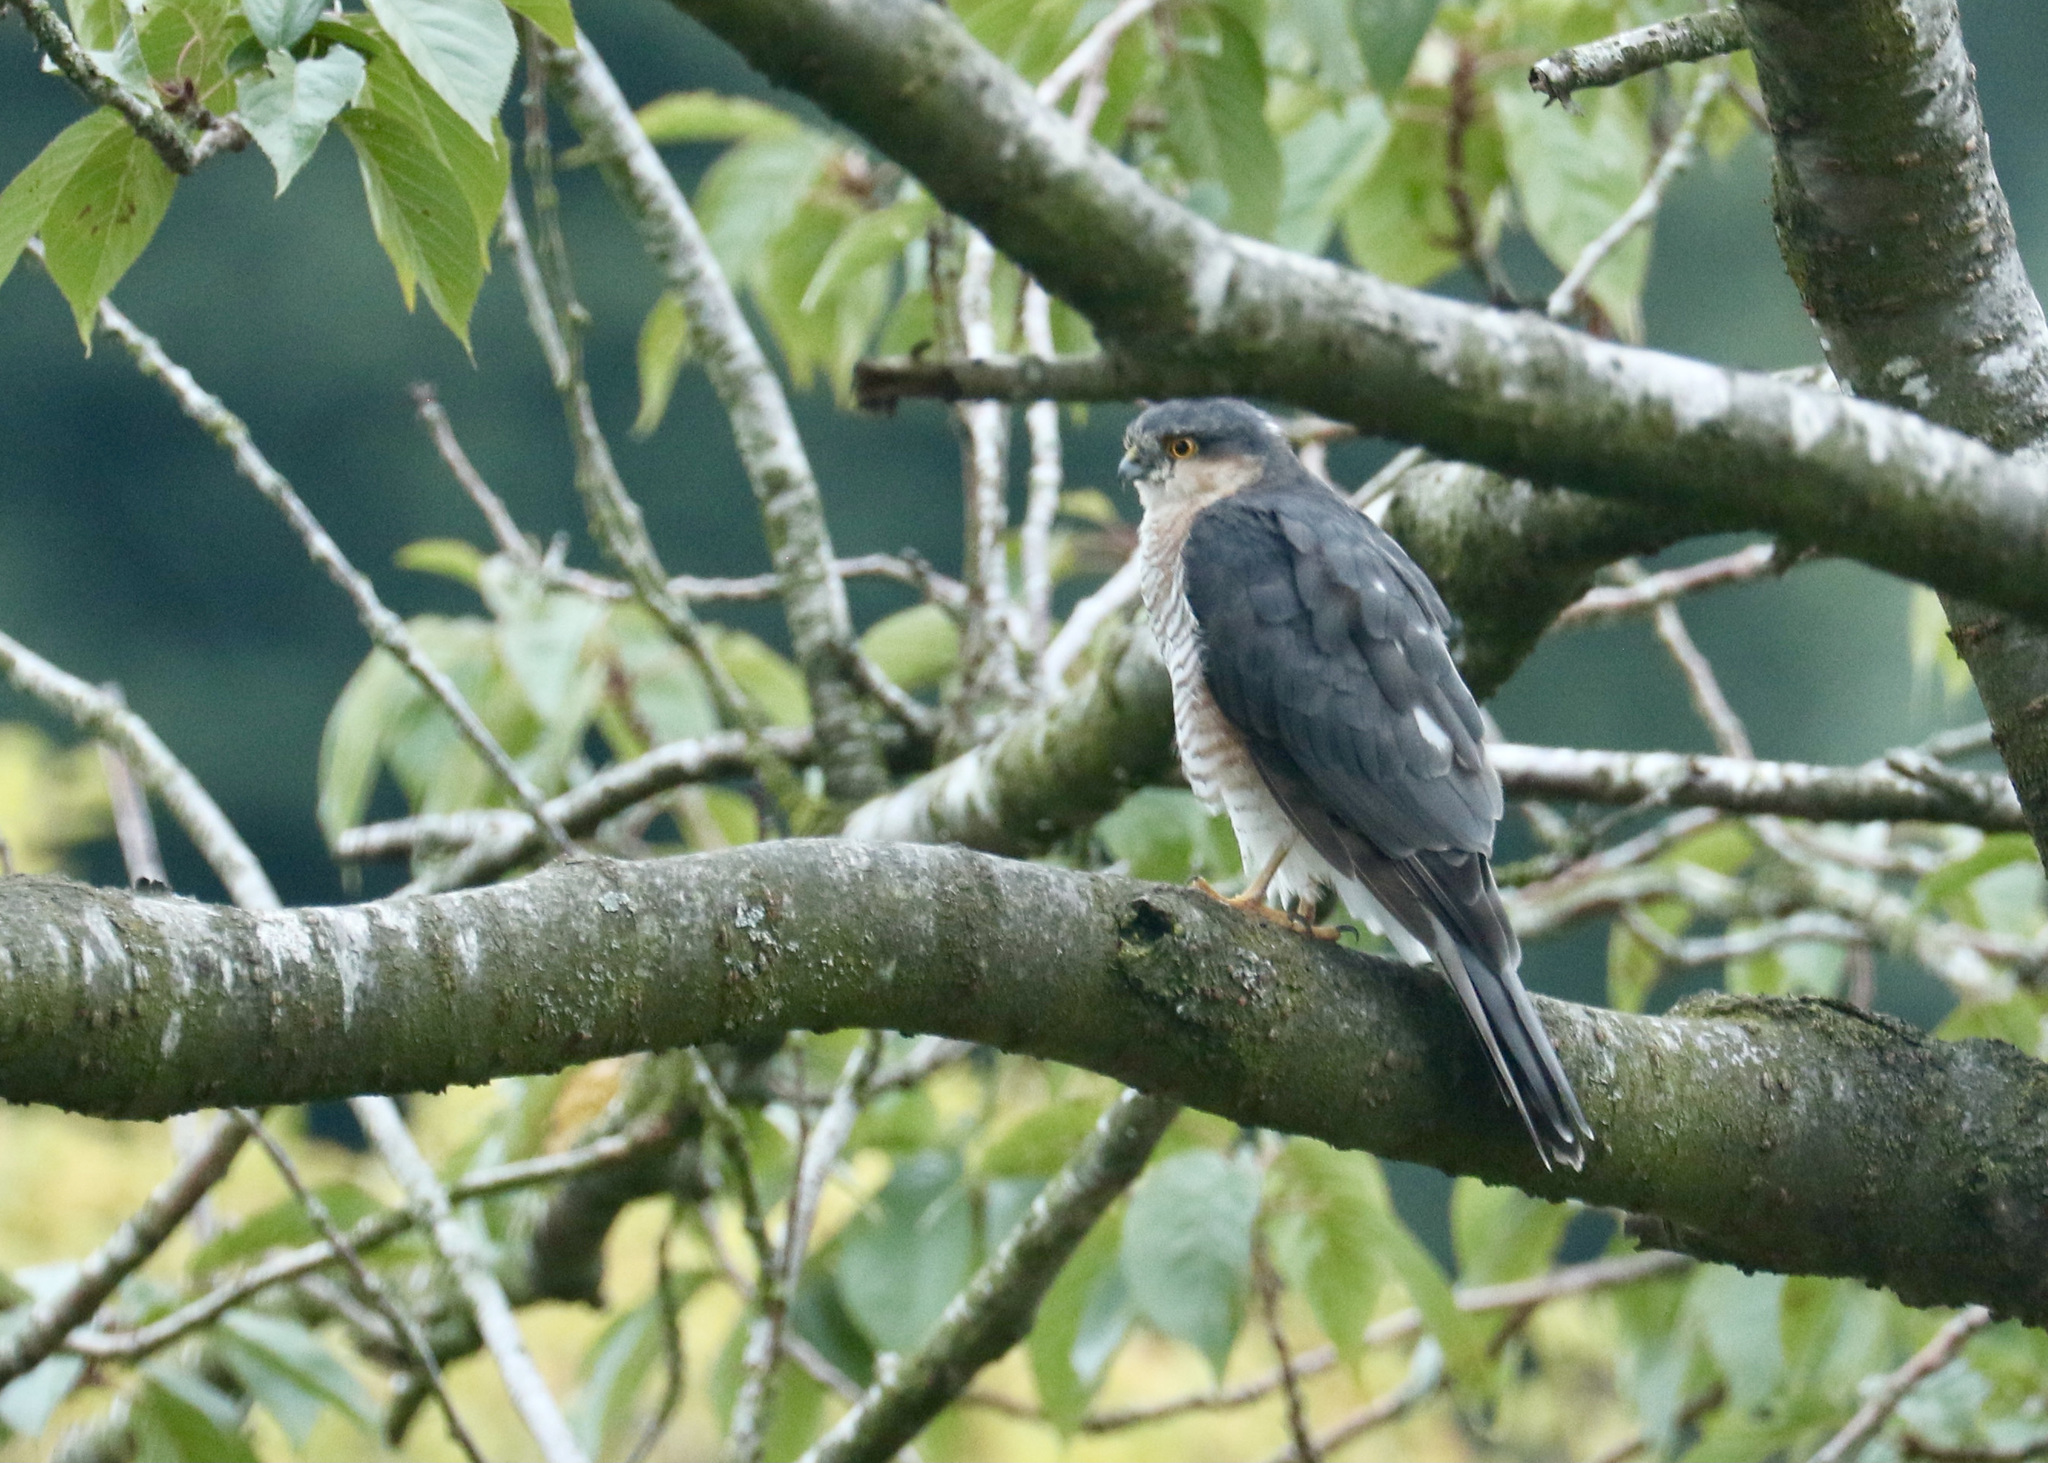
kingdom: Animalia
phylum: Chordata
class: Aves
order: Accipitriformes
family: Accipitridae
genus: Accipiter
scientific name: Accipiter nisus
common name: Eurasian sparrowhawk
